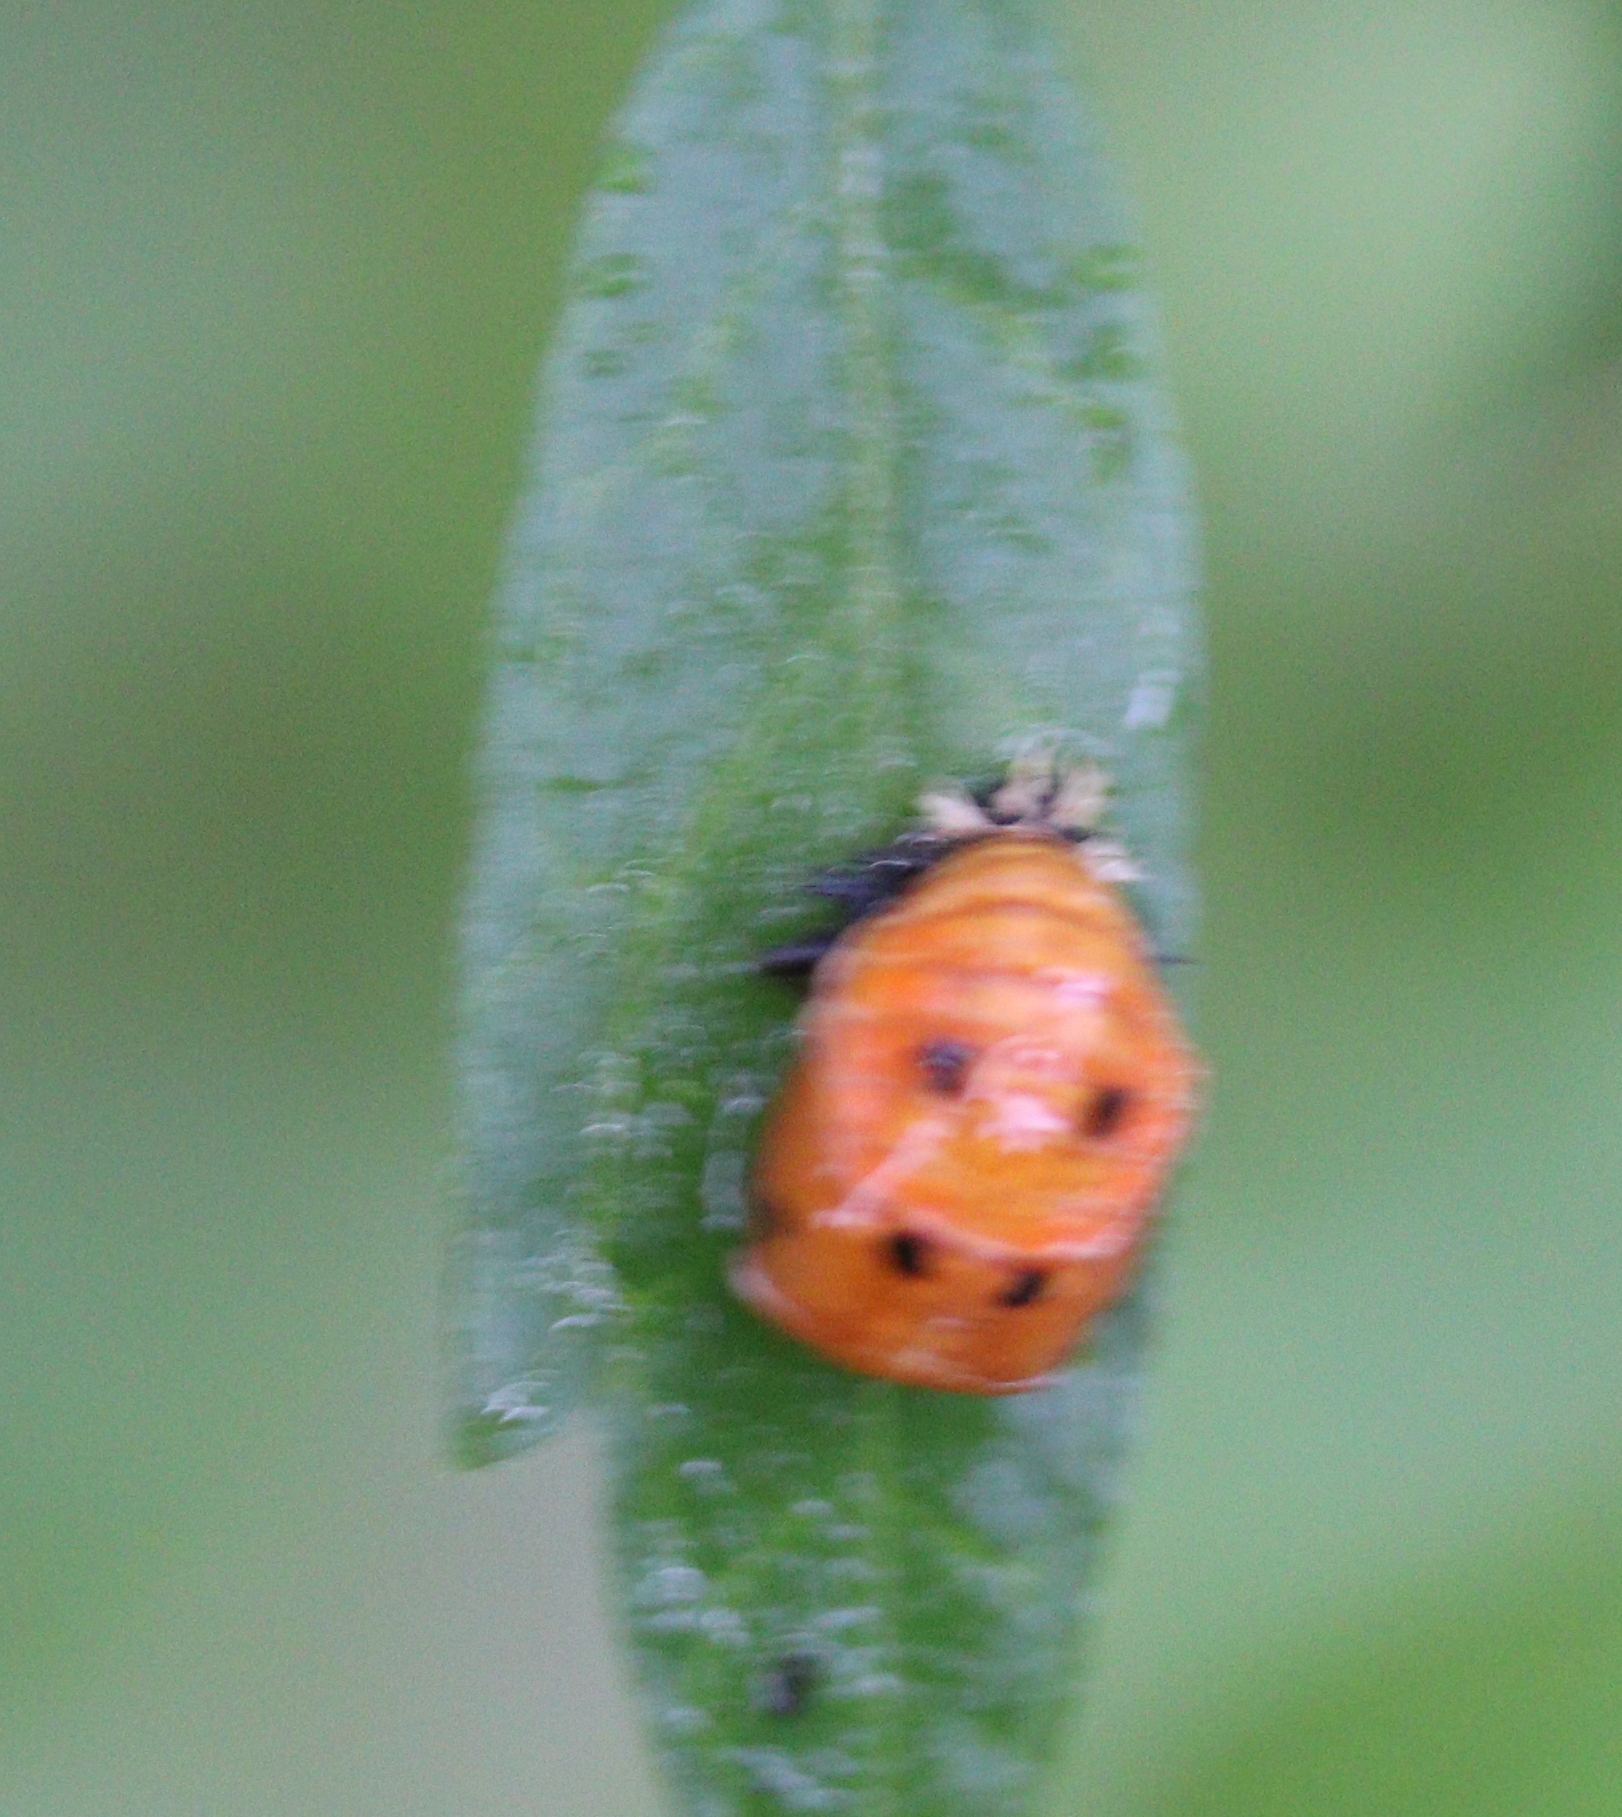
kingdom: Animalia
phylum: Arthropoda
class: Insecta
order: Coleoptera
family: Coccinellidae
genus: Harmonia
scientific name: Harmonia axyridis
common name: Harlequin ladybird
